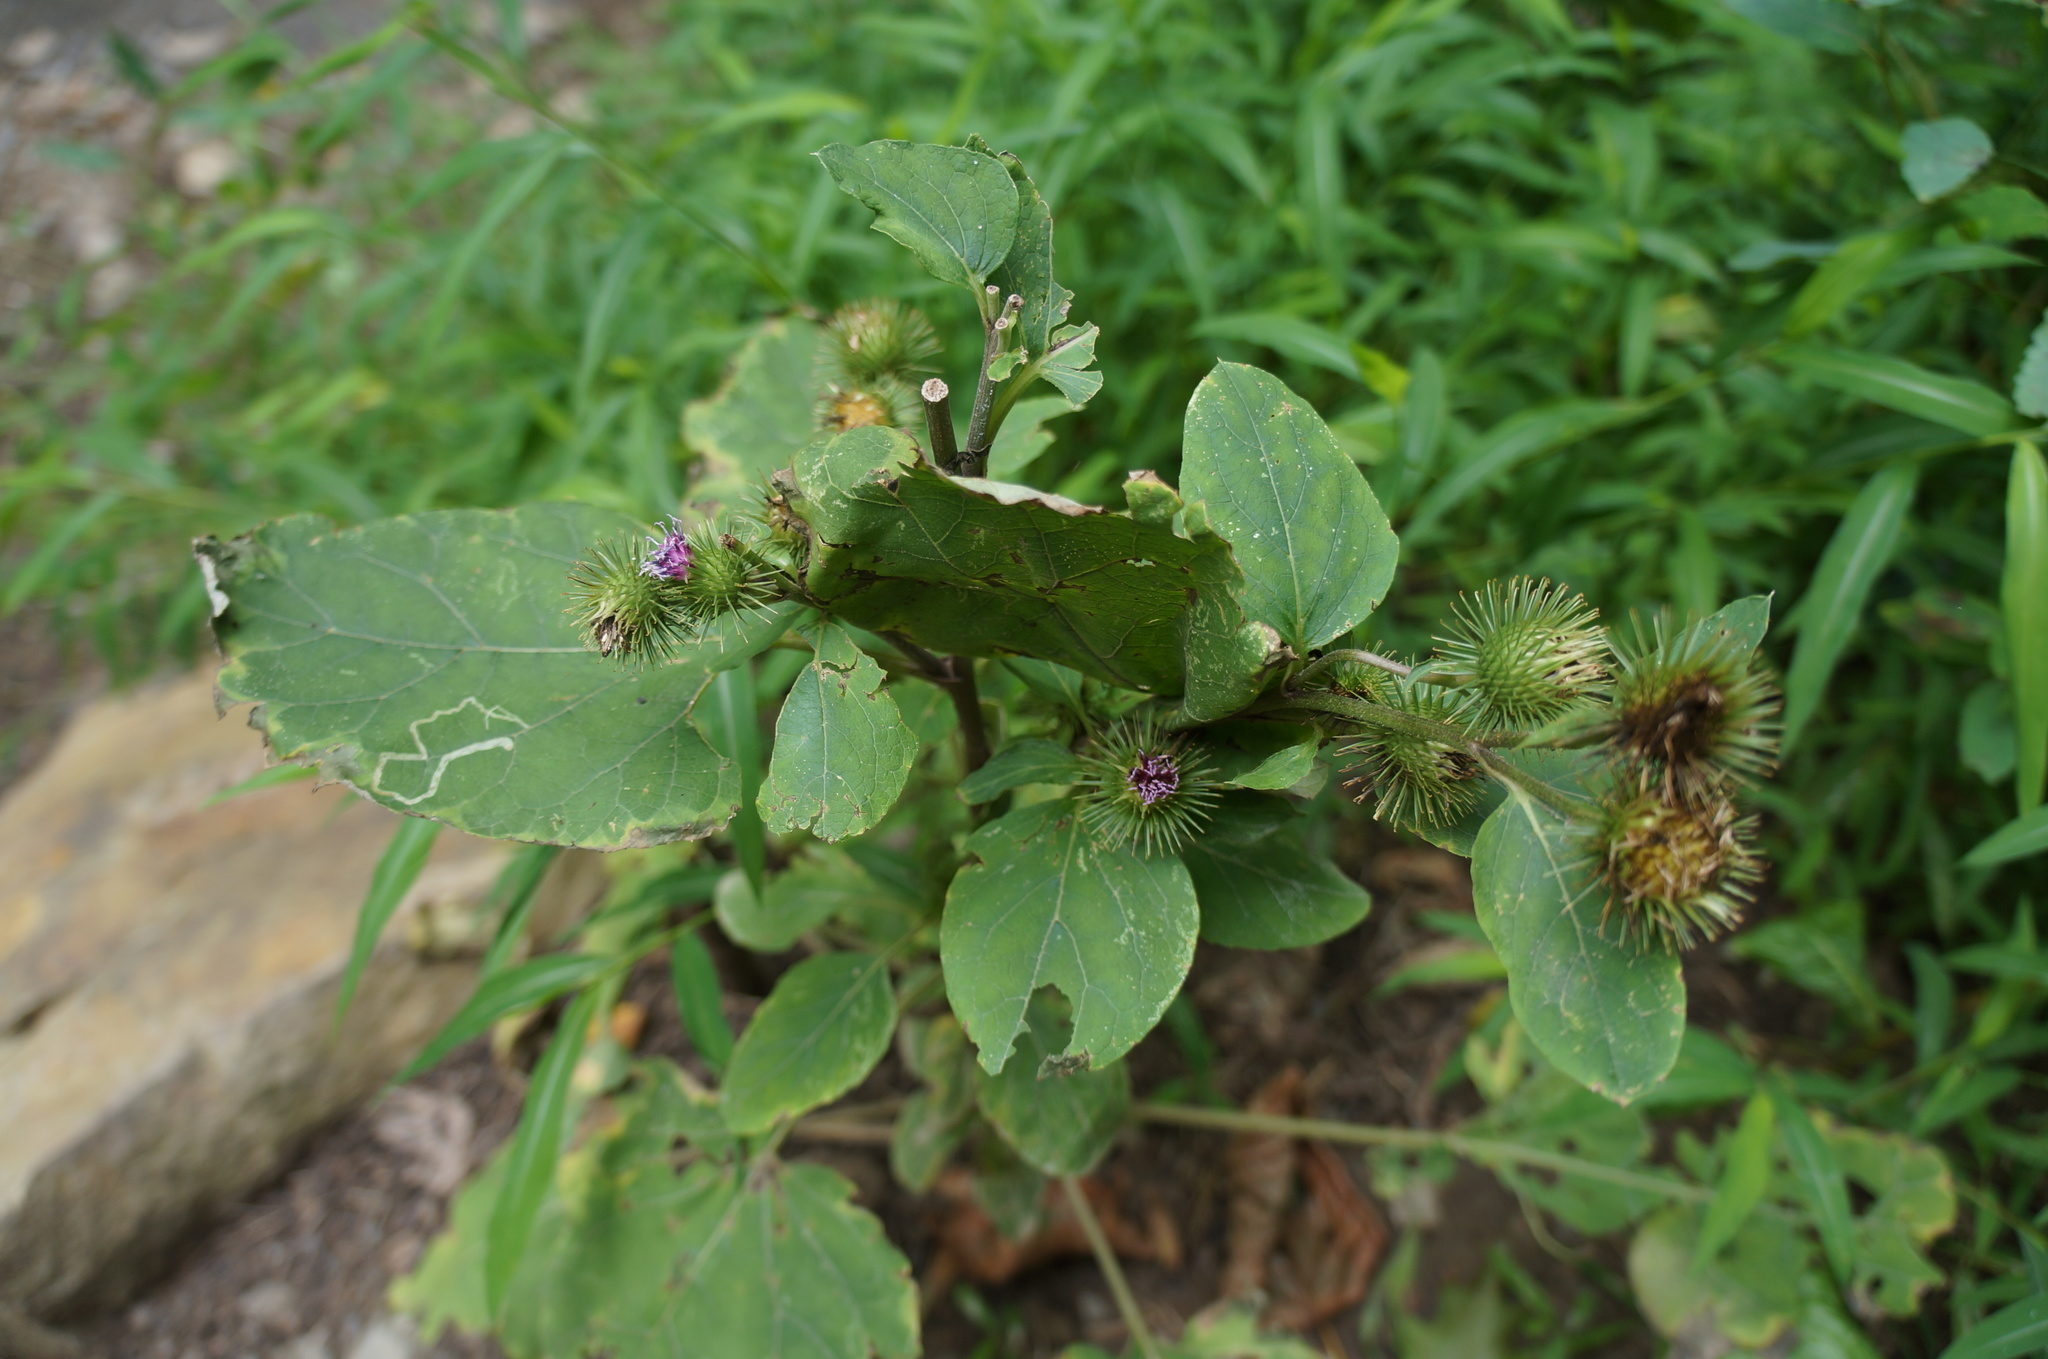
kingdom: Plantae
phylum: Tracheophyta
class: Magnoliopsida
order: Asterales
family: Asteraceae
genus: Arctium
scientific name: Arctium minus
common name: Lesser burdock
